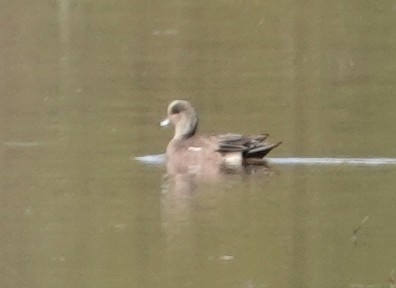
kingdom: Animalia
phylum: Chordata
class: Aves
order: Anseriformes
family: Anatidae
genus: Mareca
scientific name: Mareca americana
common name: American wigeon
